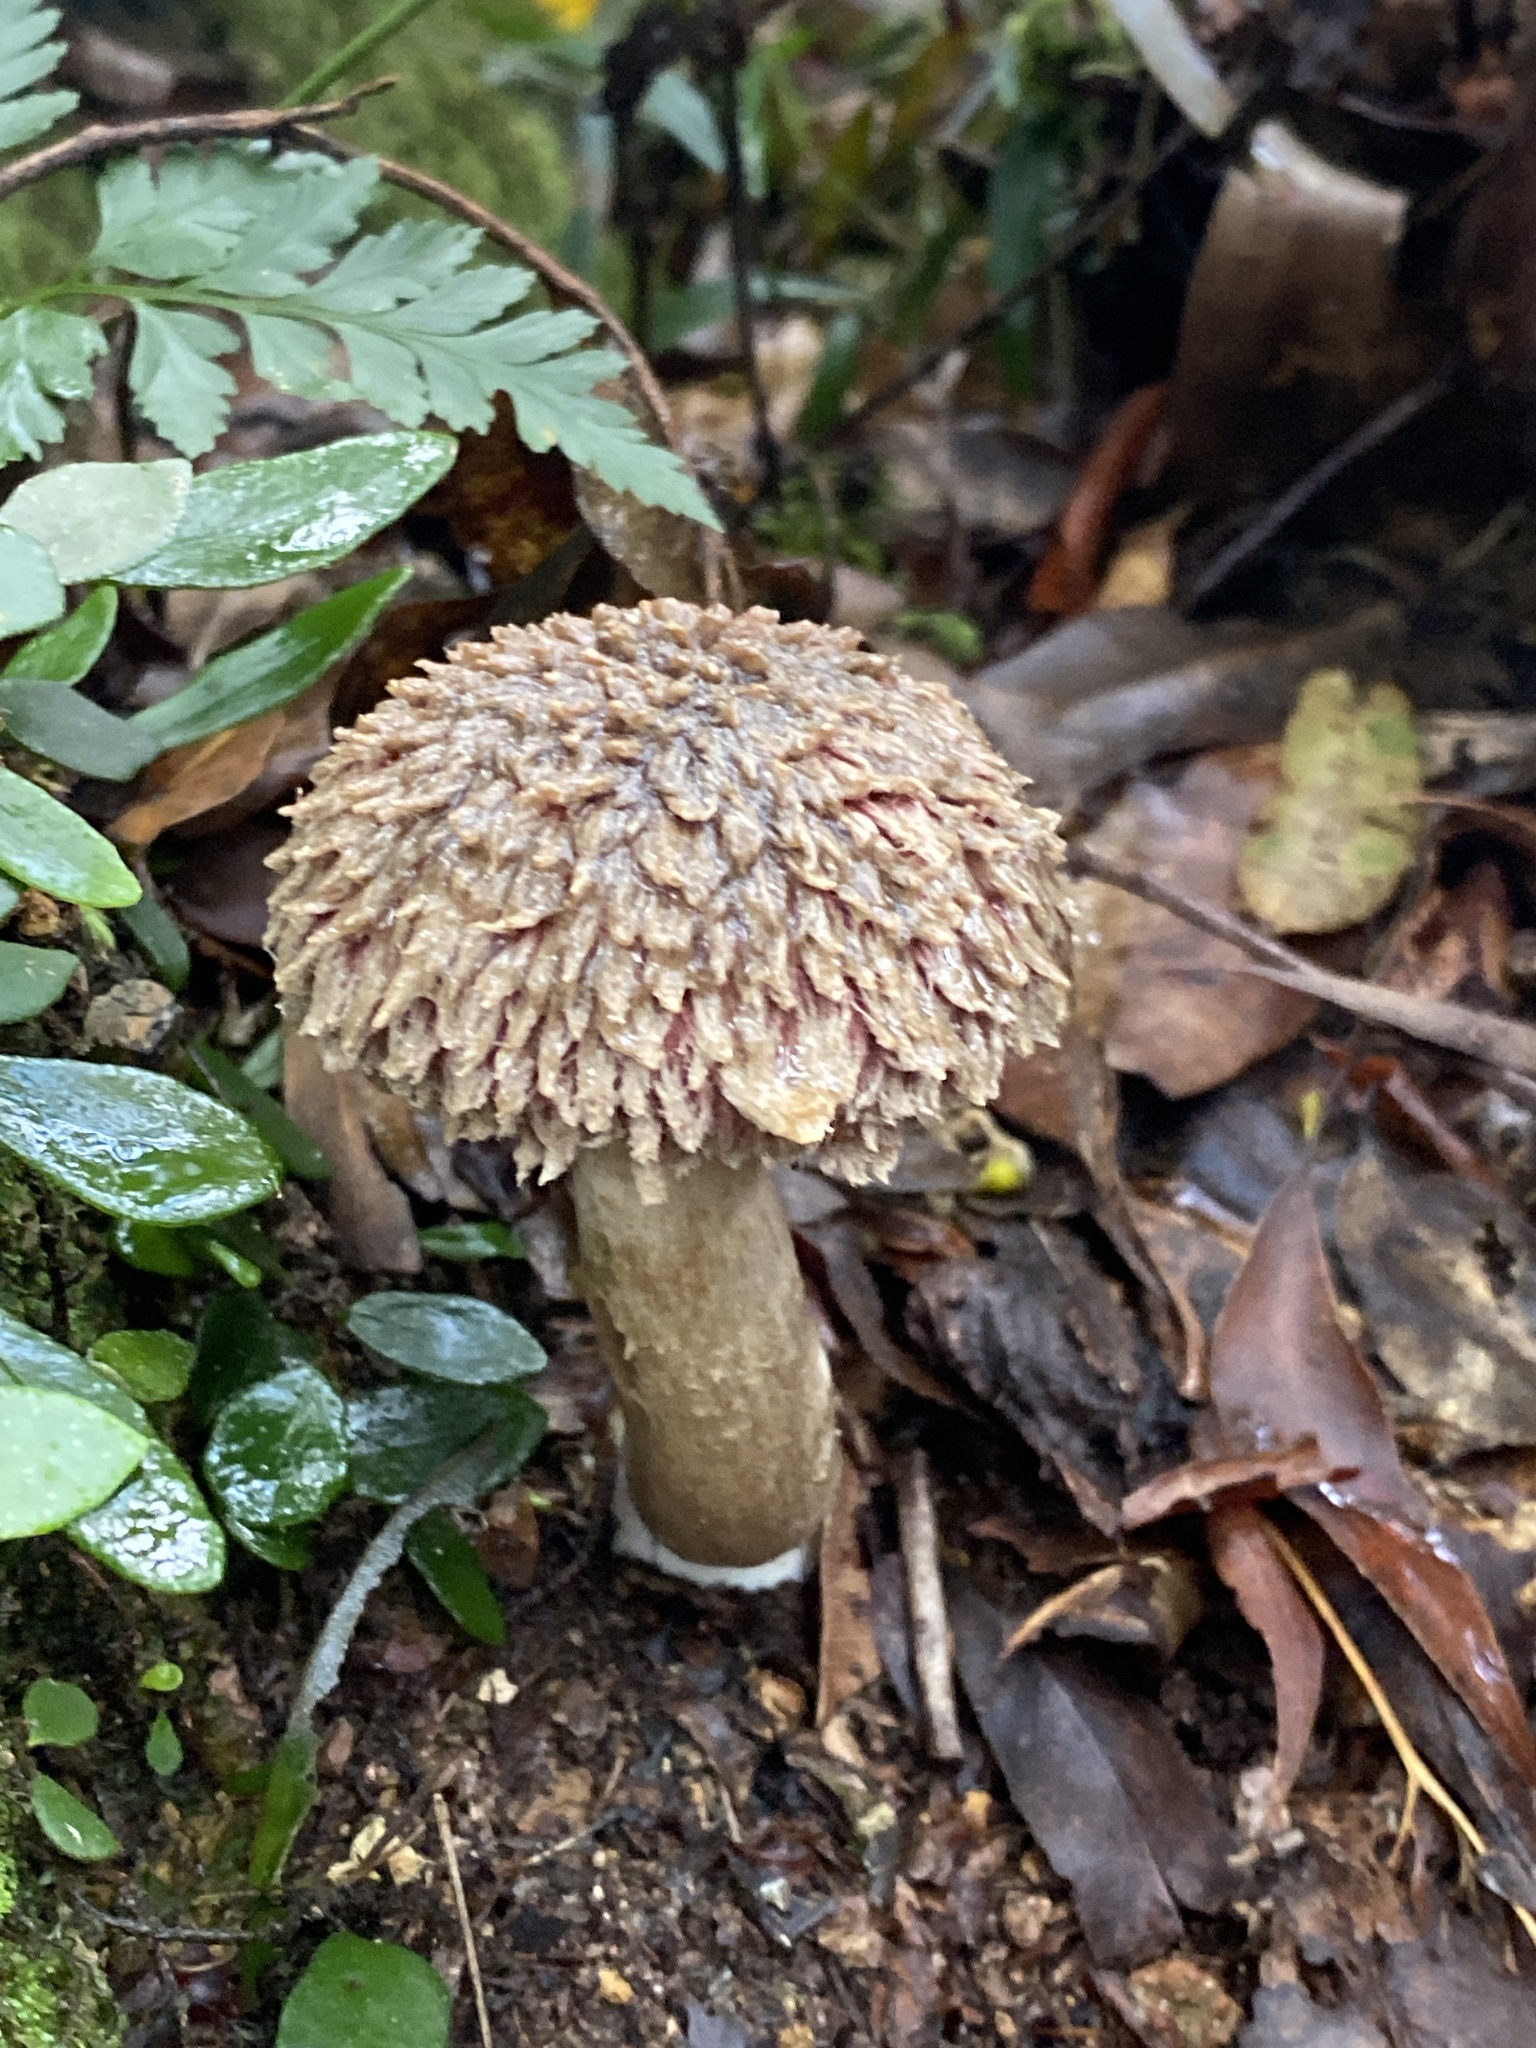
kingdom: Fungi
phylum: Basidiomycota
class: Agaricomycetes
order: Boletales
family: Boletaceae
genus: Boletellus
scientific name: Boletellus emodensis
